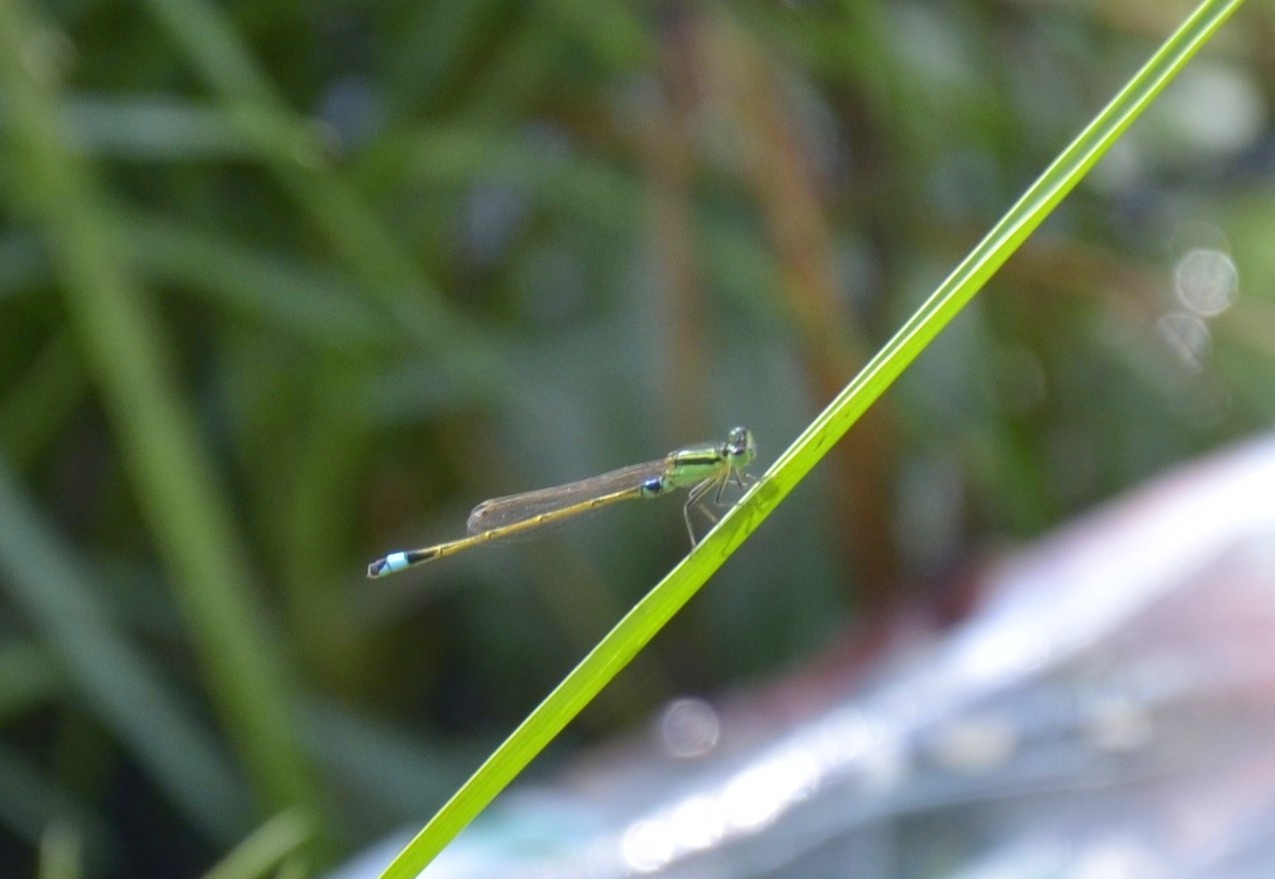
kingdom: Animalia
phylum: Arthropoda
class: Insecta
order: Odonata
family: Coenagrionidae
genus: Ischnura
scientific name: Ischnura senegalensis
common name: Tropical bluetail
